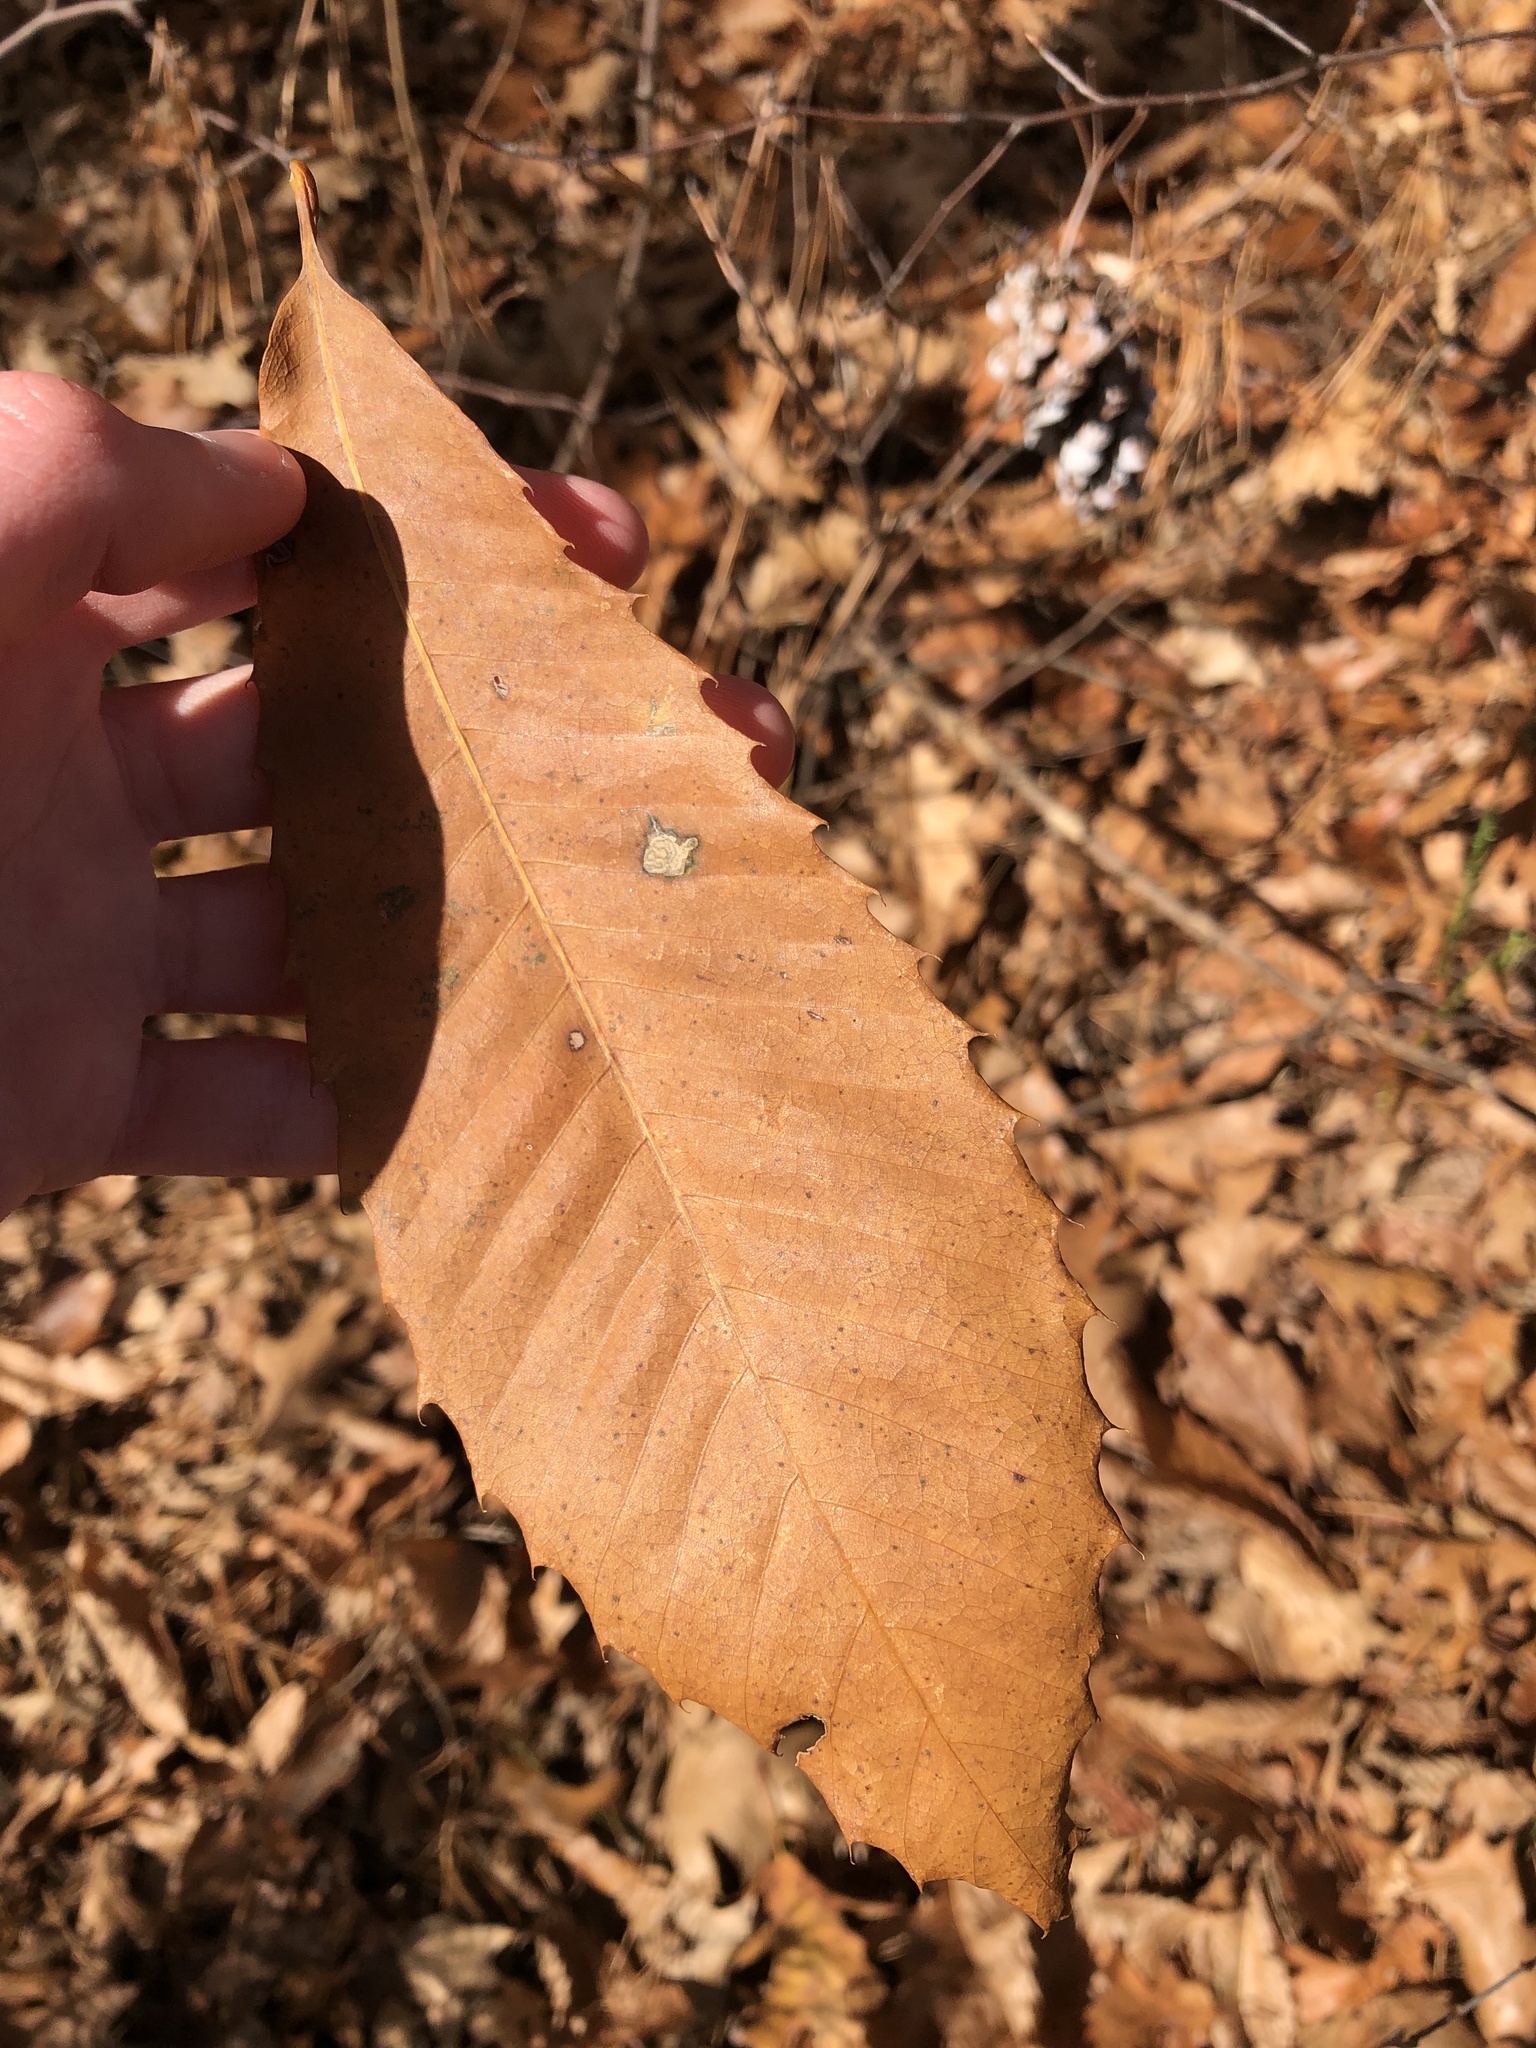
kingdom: Plantae
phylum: Tracheophyta
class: Magnoliopsida
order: Fagales
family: Fagaceae
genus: Castanea
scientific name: Castanea dentata
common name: American chestnut
